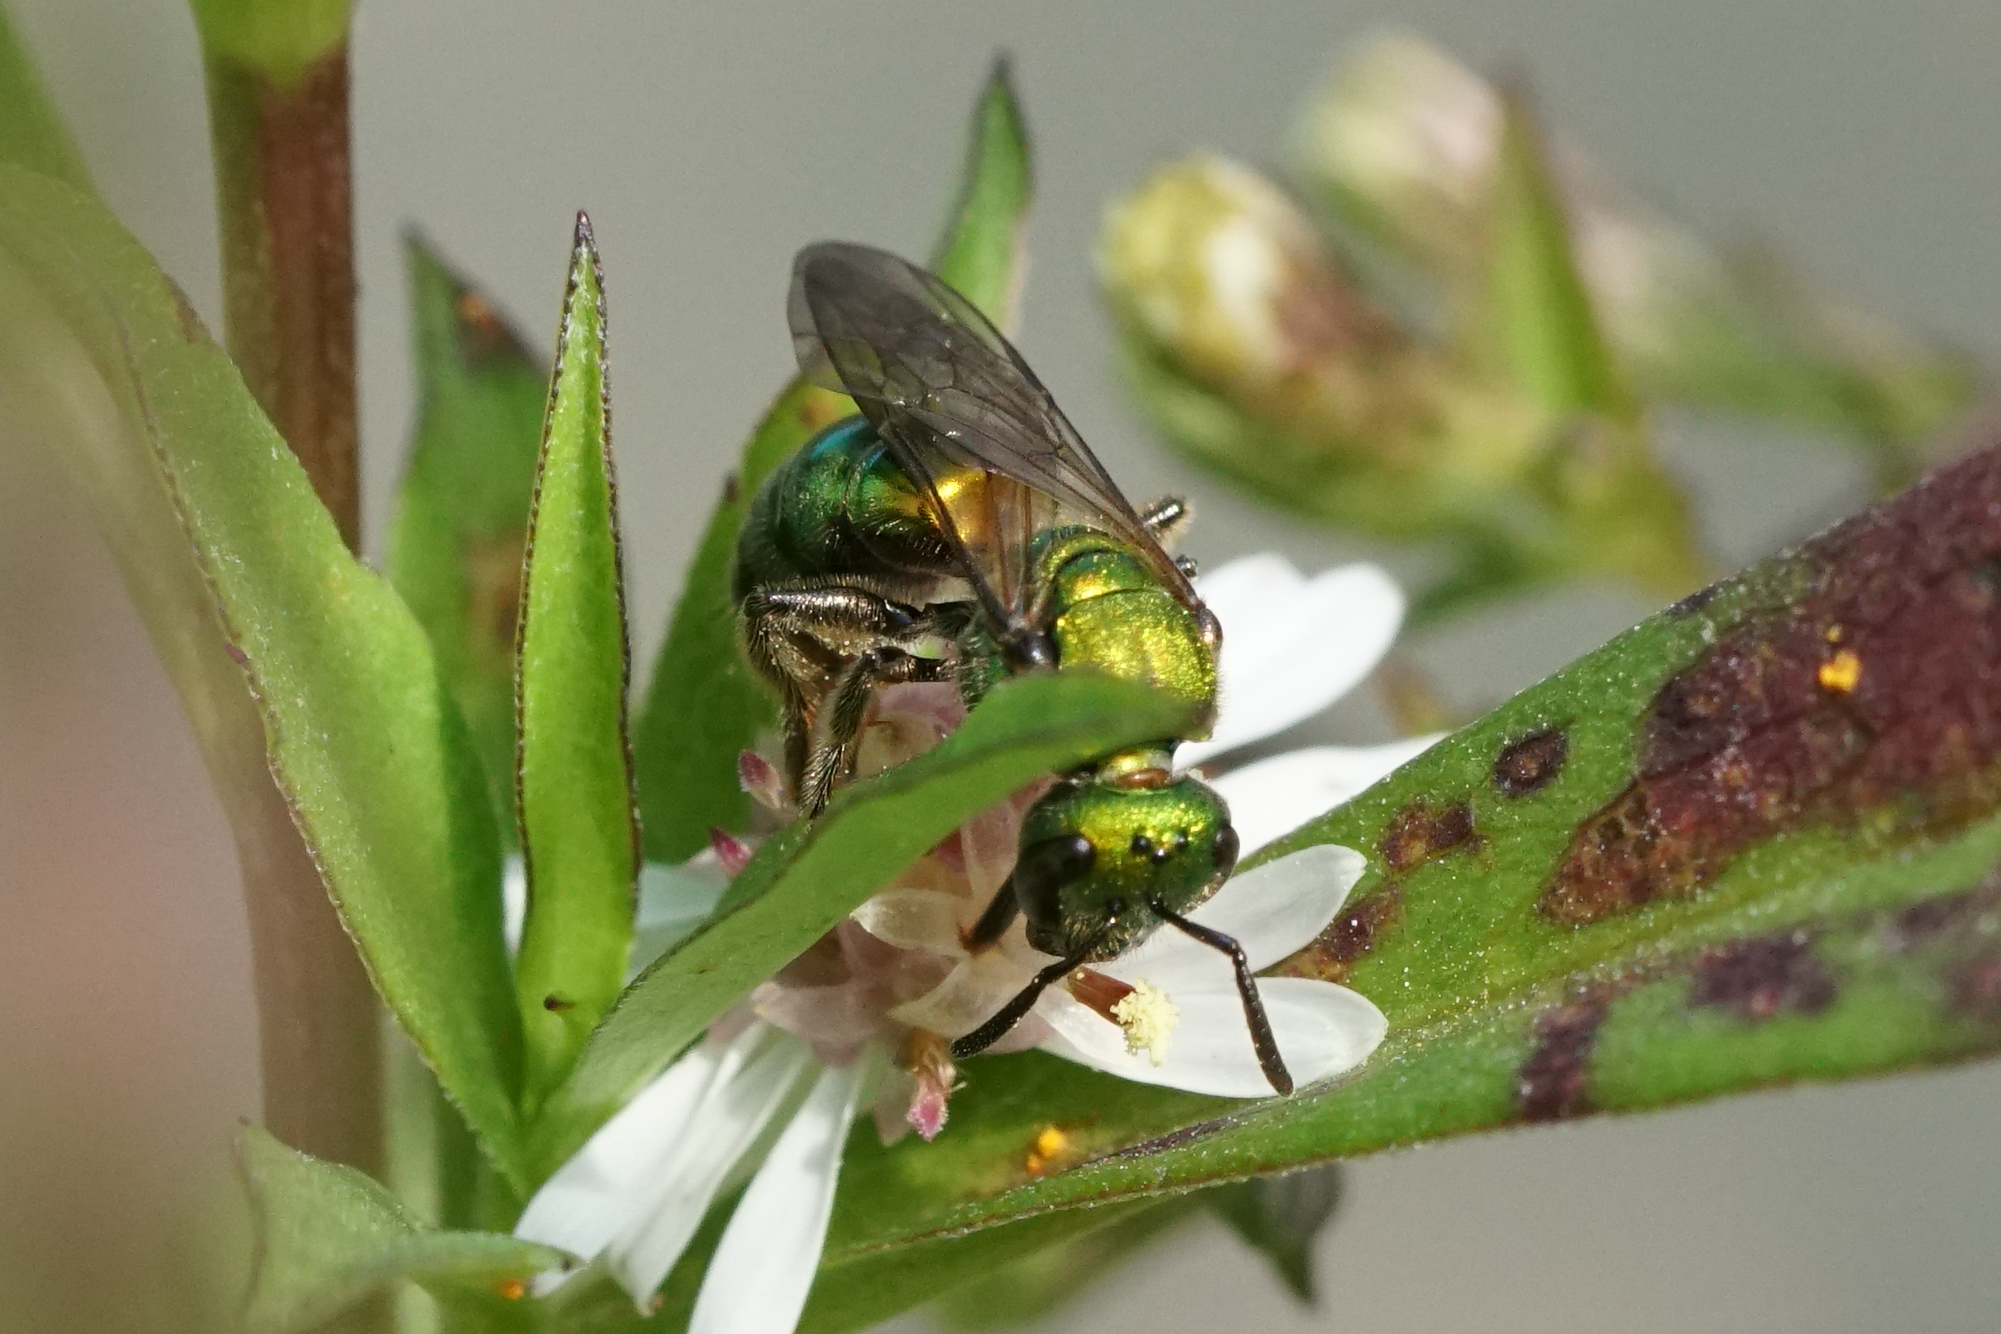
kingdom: Animalia
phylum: Arthropoda
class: Insecta
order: Hymenoptera
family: Halictidae
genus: Augochlora
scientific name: Augochlora pura
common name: Pure green sweat bee
